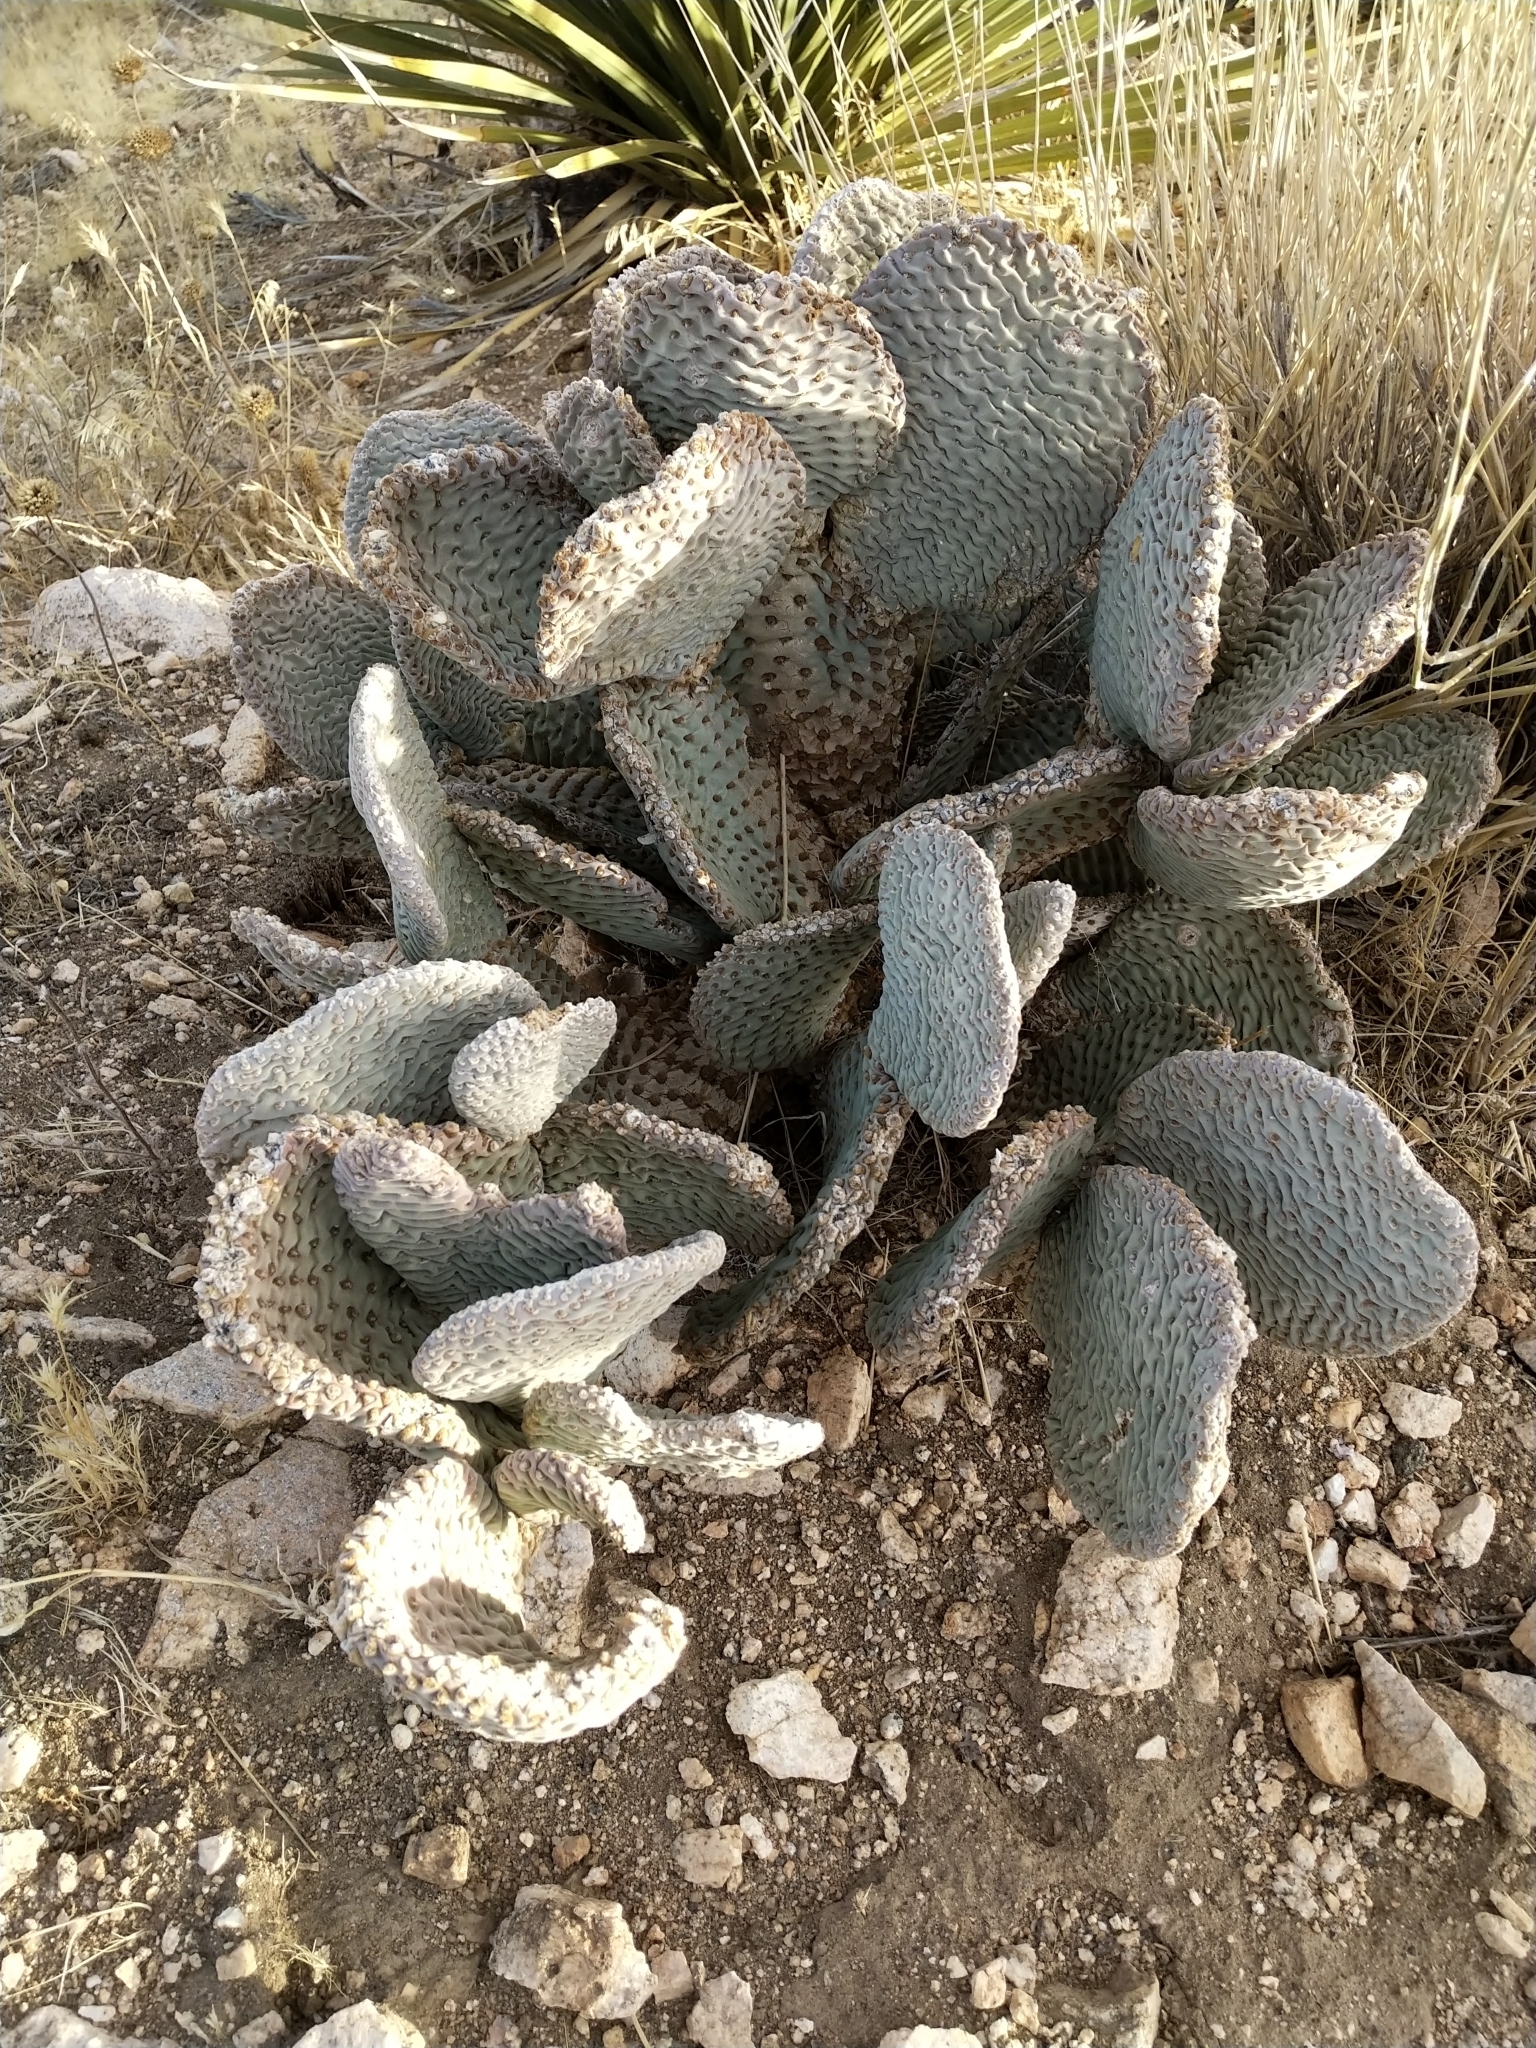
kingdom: Plantae
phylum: Tracheophyta
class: Magnoliopsida
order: Caryophyllales
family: Cactaceae
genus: Opuntia
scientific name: Opuntia basilaris
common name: Beavertail prickly-pear
